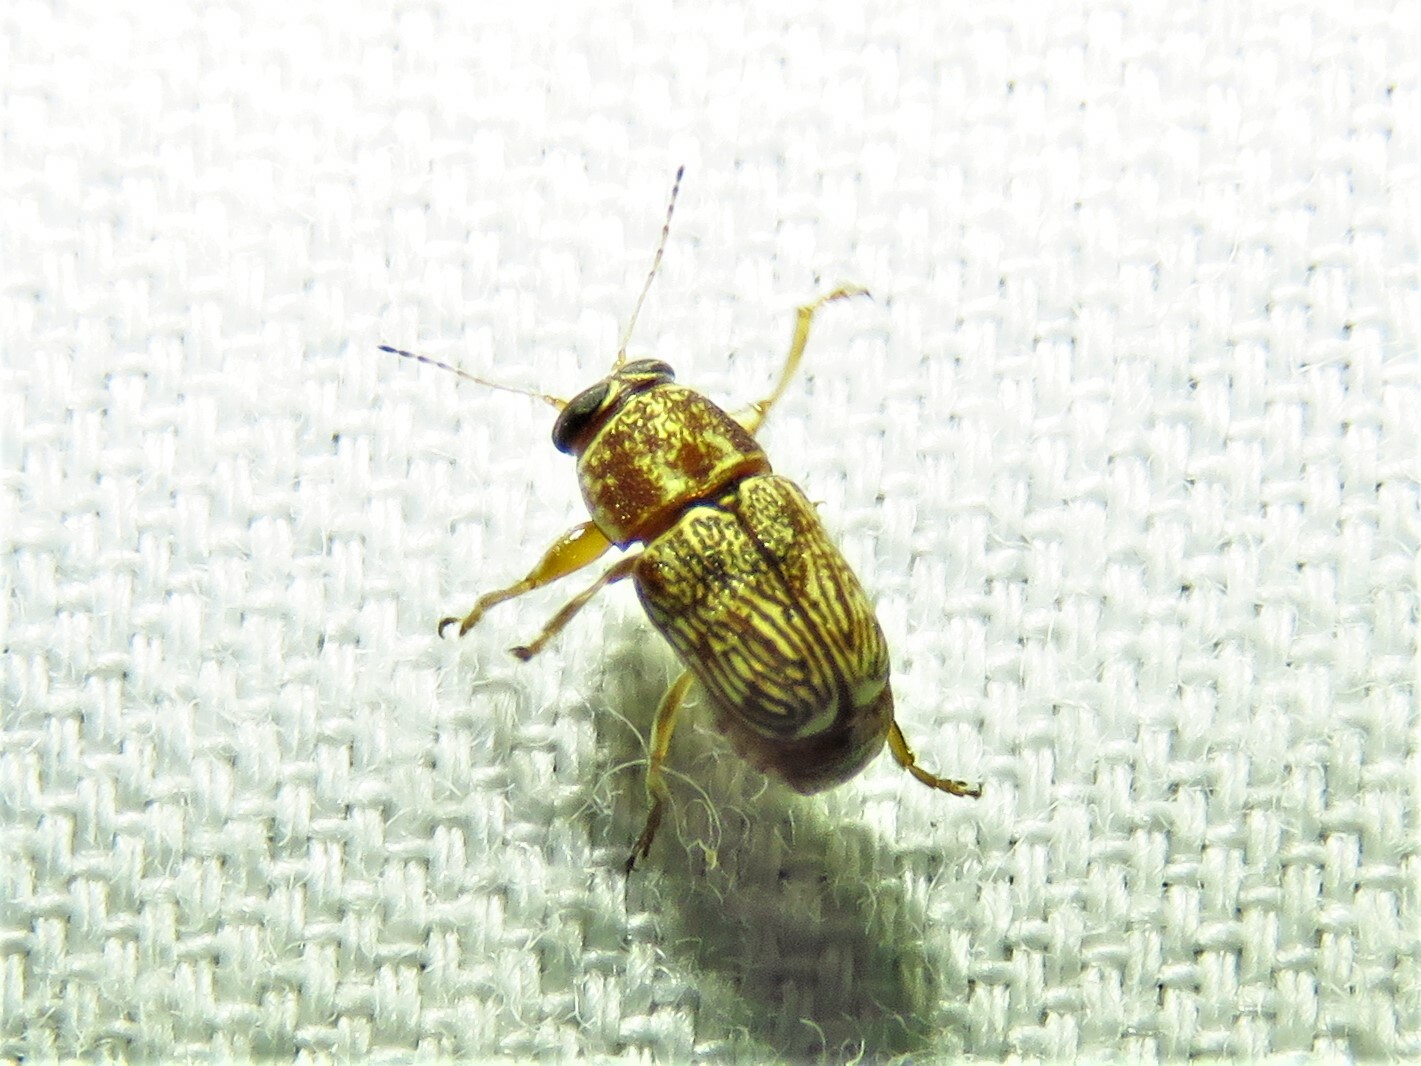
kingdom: Animalia
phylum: Arthropoda
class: Insecta
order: Coleoptera
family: Chrysomelidae
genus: Pachybrachis
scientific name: Pachybrachis texanus
